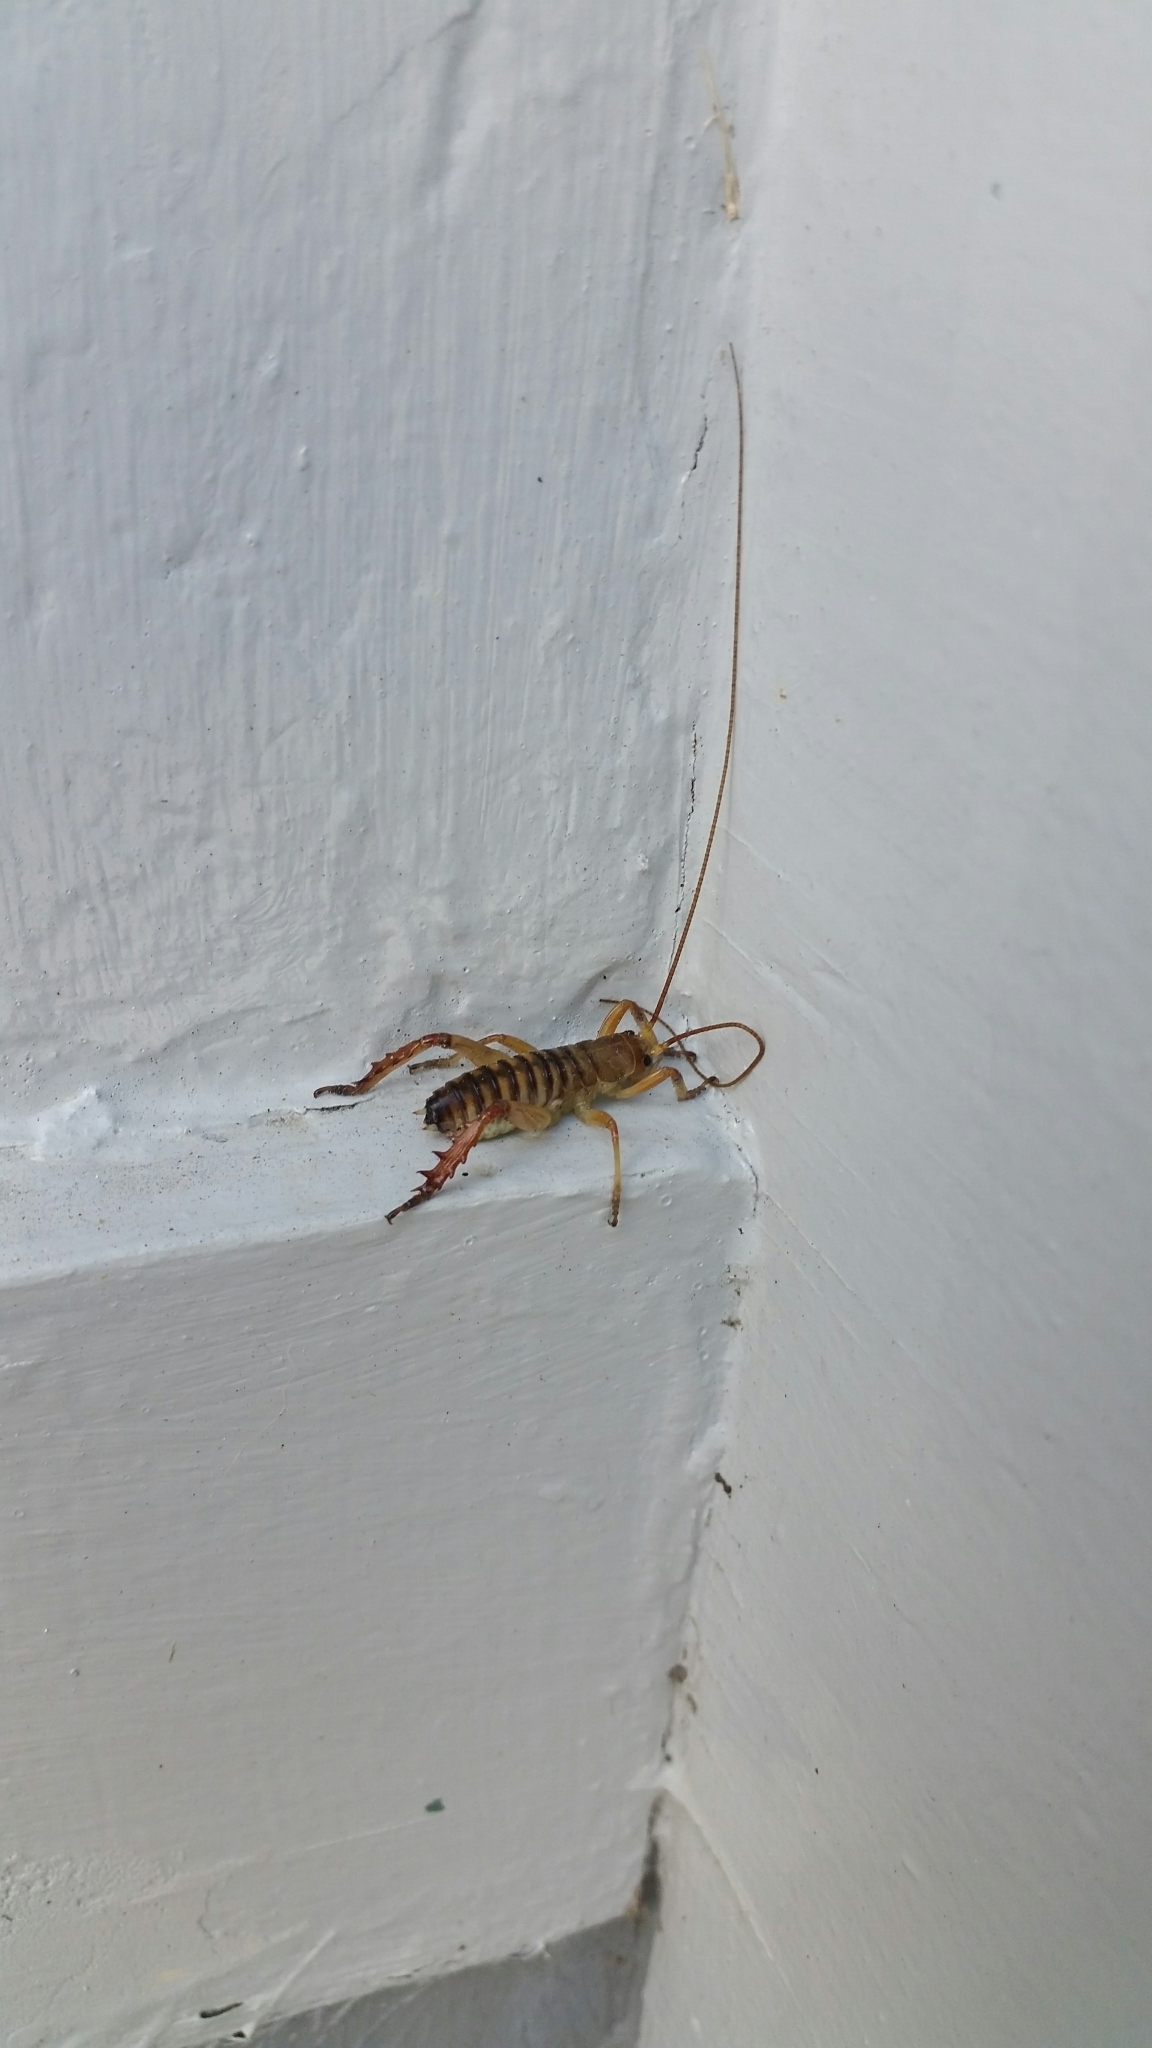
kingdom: Animalia
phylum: Arthropoda
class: Insecta
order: Orthoptera
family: Anostostomatidae
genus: Hemideina
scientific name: Hemideina crassidens
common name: Wellington tree weta
